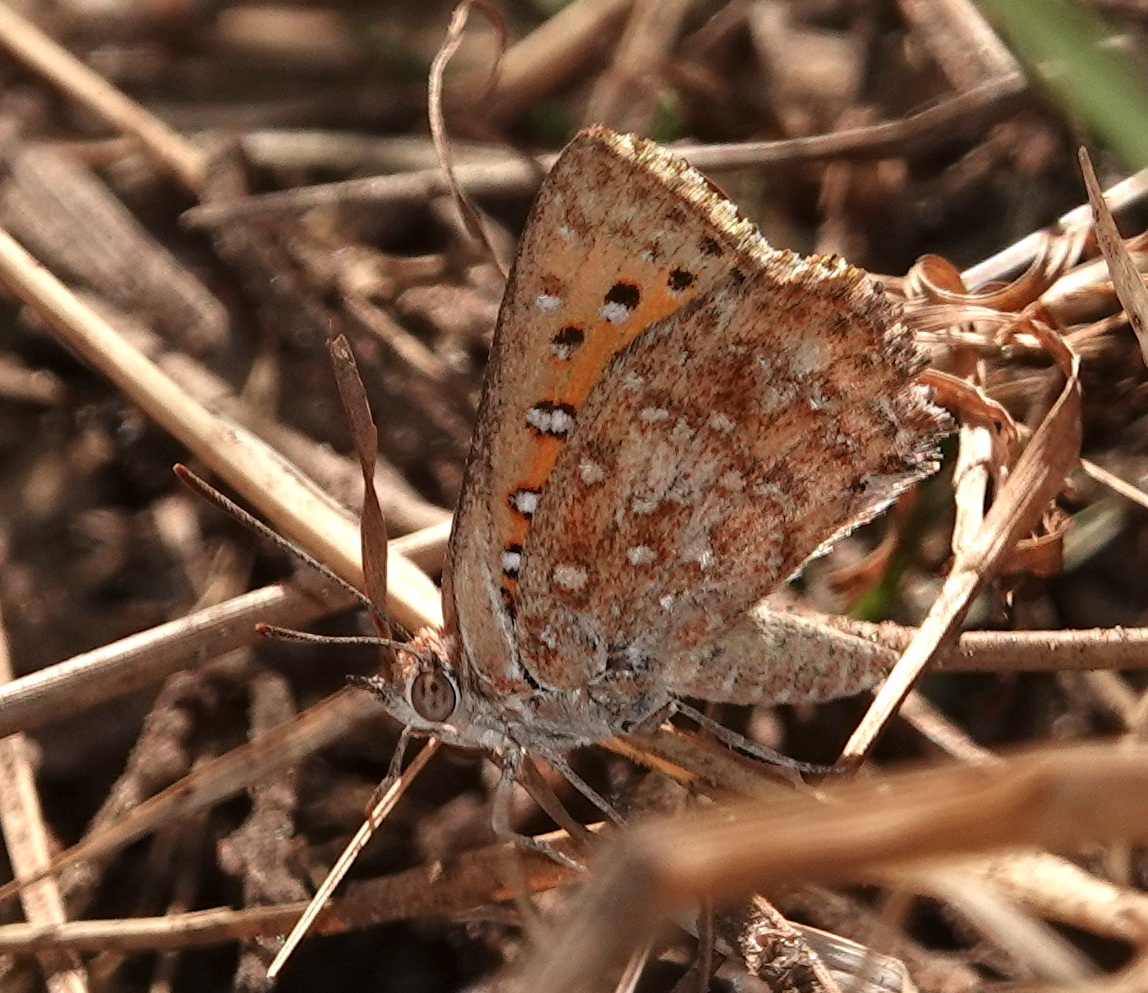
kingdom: Animalia
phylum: Arthropoda
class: Insecta
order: Lepidoptera
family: Lycaenidae
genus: Aloeides
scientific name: Aloeides damarensis
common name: Damara russet
